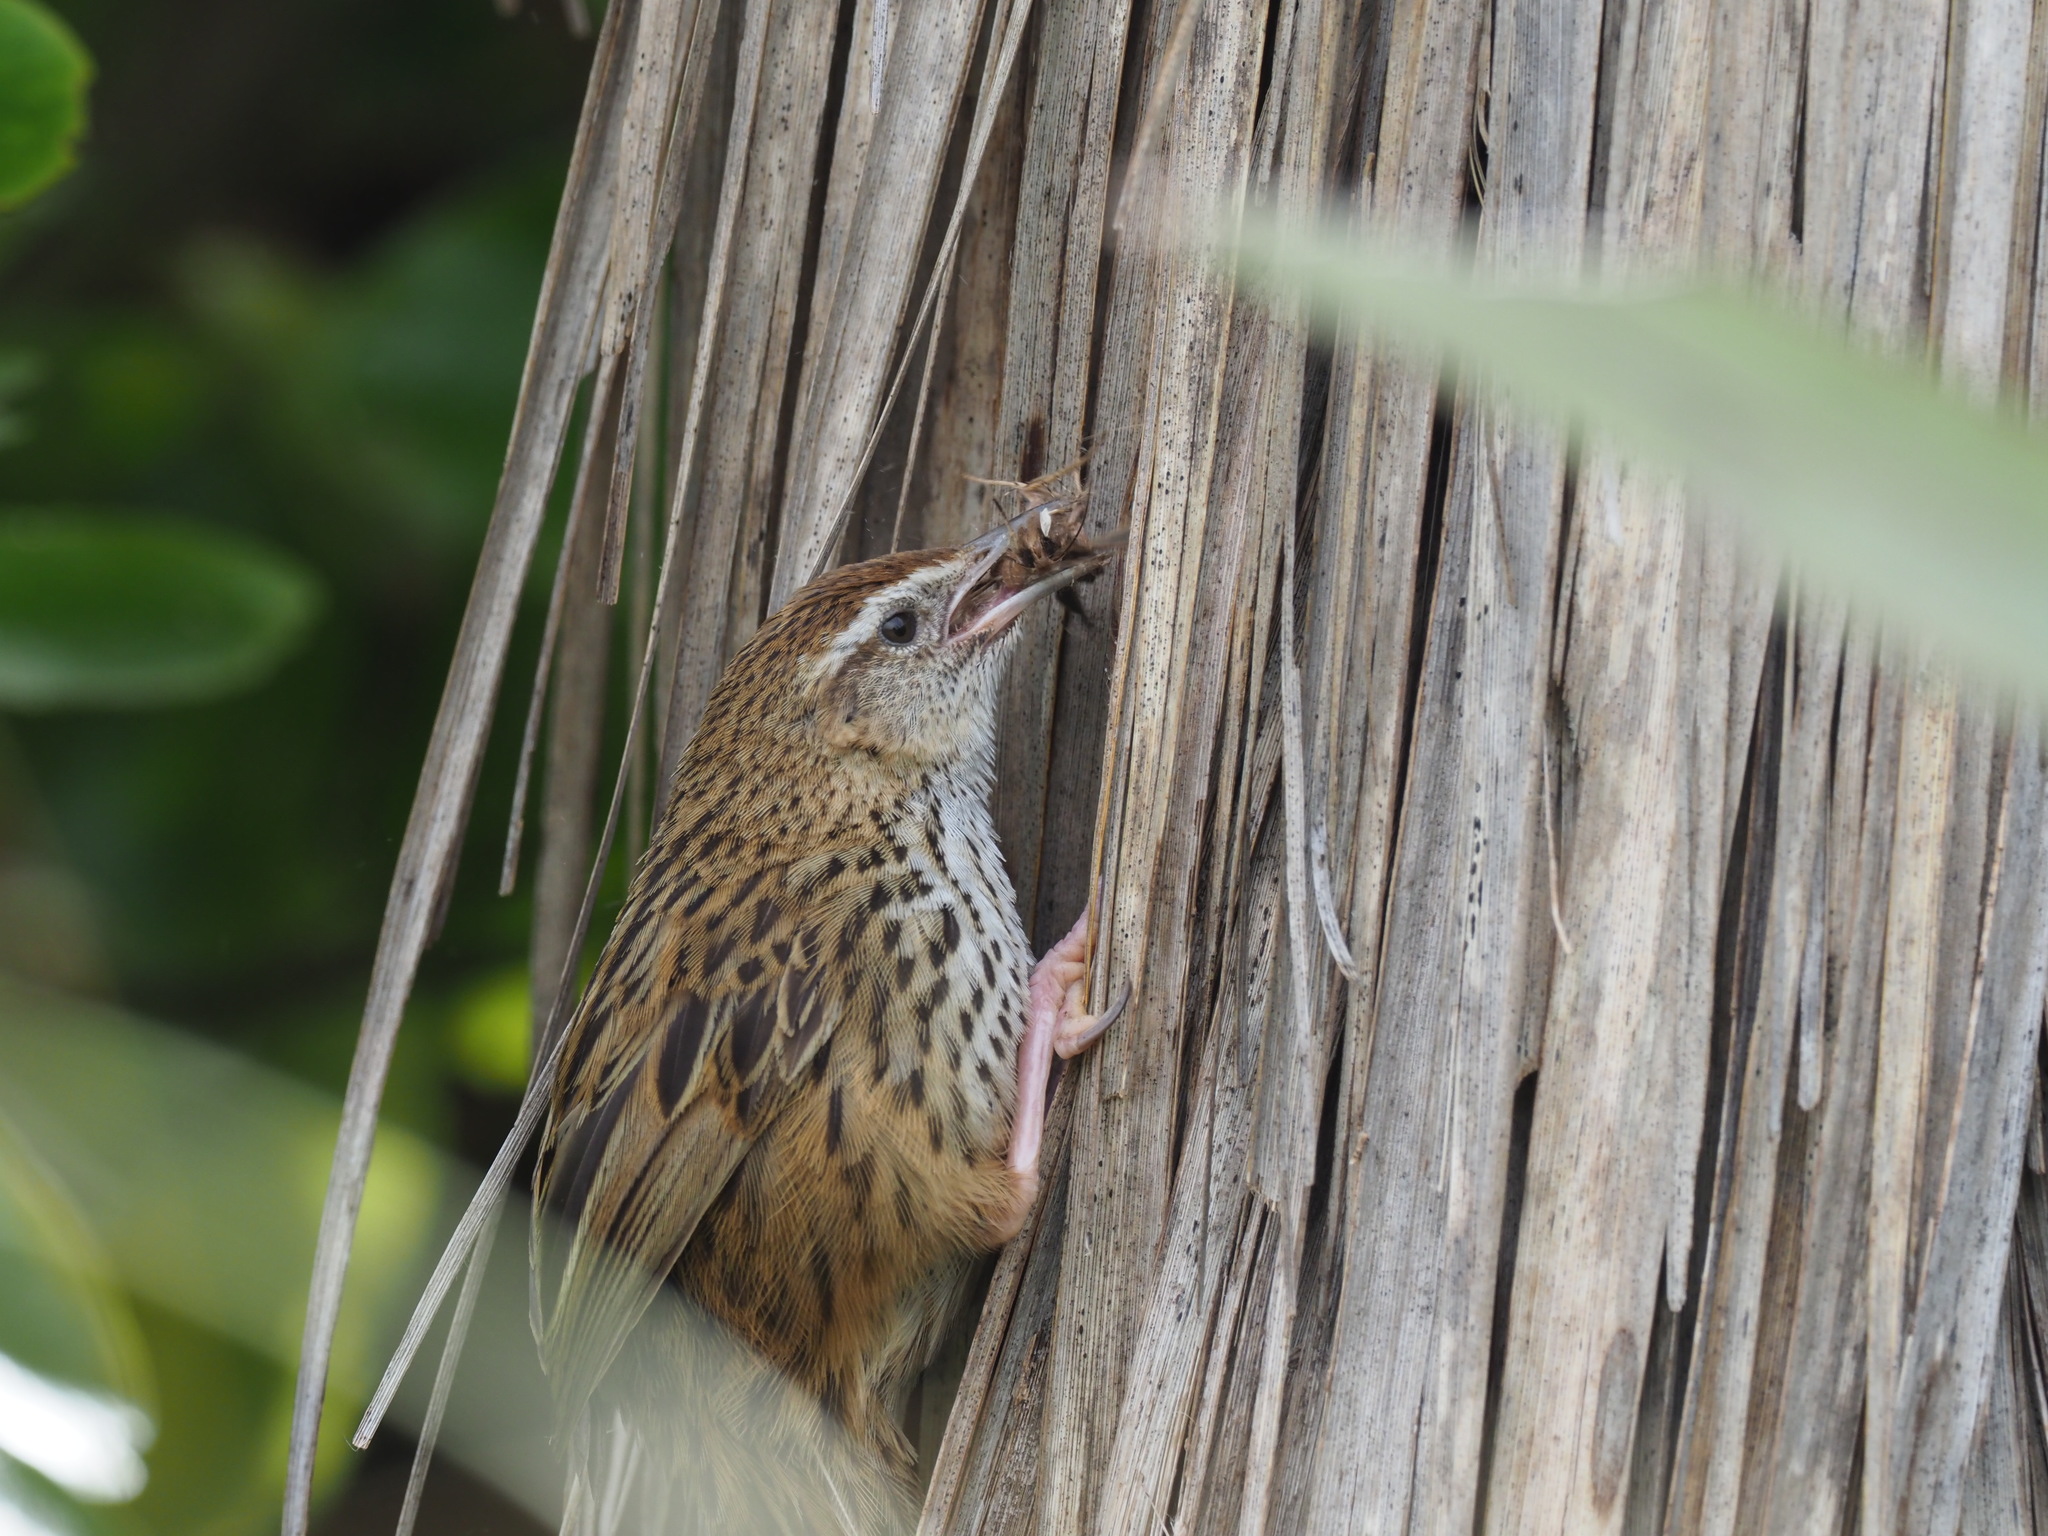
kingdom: Animalia
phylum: Chordata
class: Aves
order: Passeriformes
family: Locustellidae
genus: Poodytes
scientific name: Poodytes punctatus
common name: New zealand fernbird
